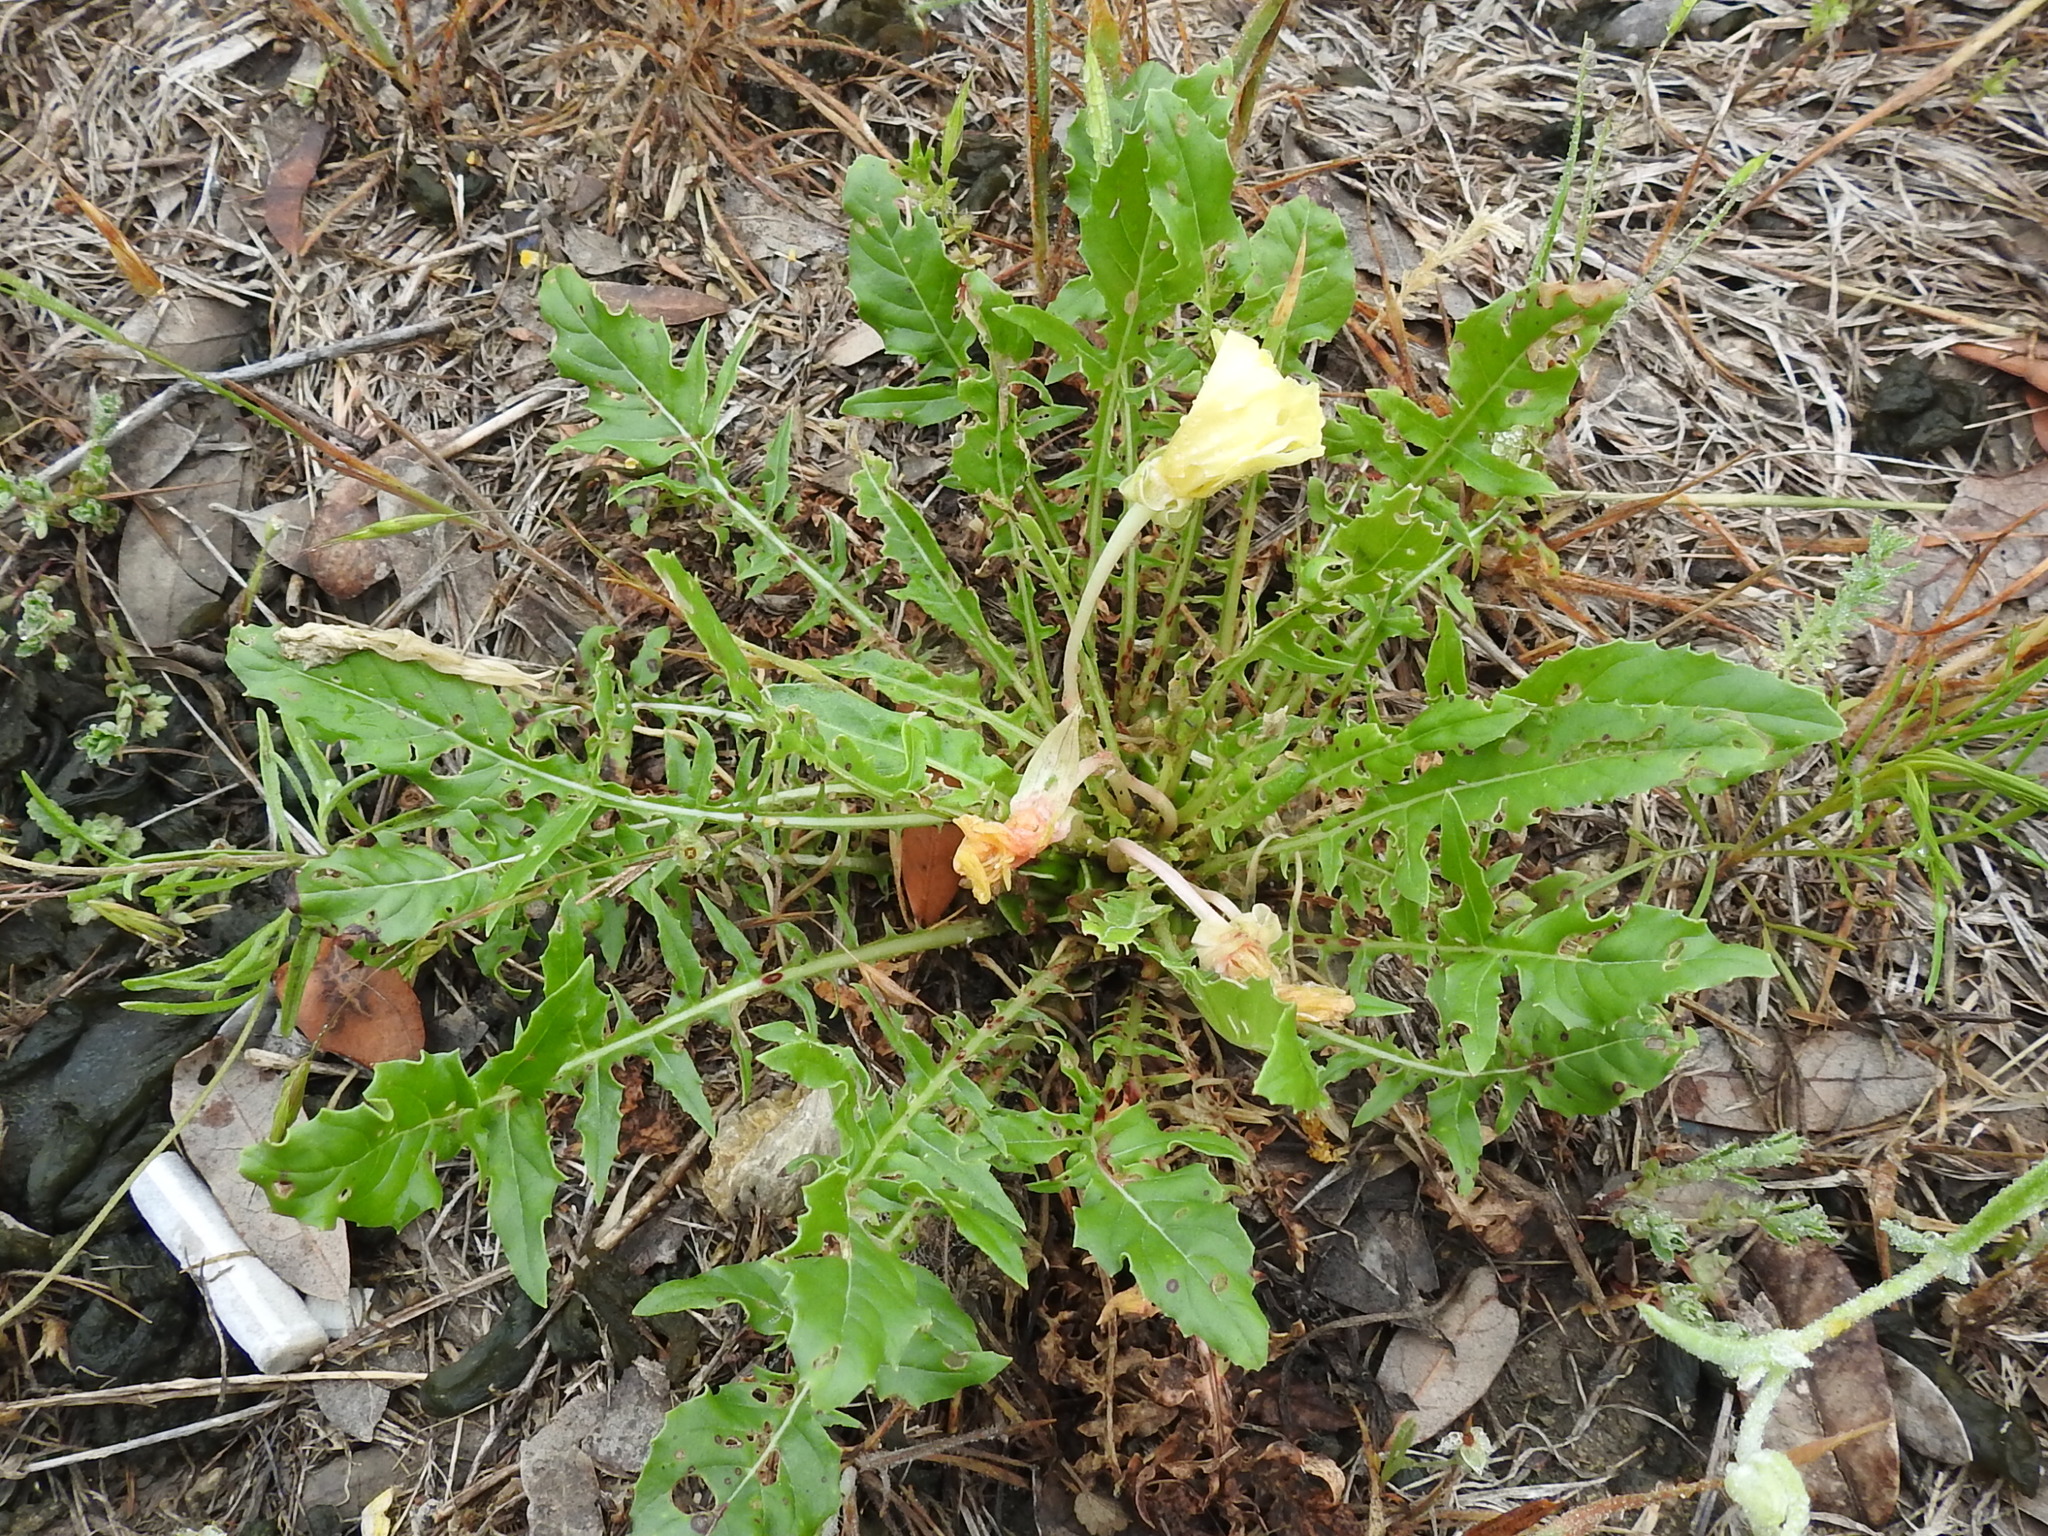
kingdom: Plantae
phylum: Tracheophyta
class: Magnoliopsida
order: Myrtales
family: Onagraceae
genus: Oenothera
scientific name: Oenothera triloba
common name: Sessile evening-primrose
